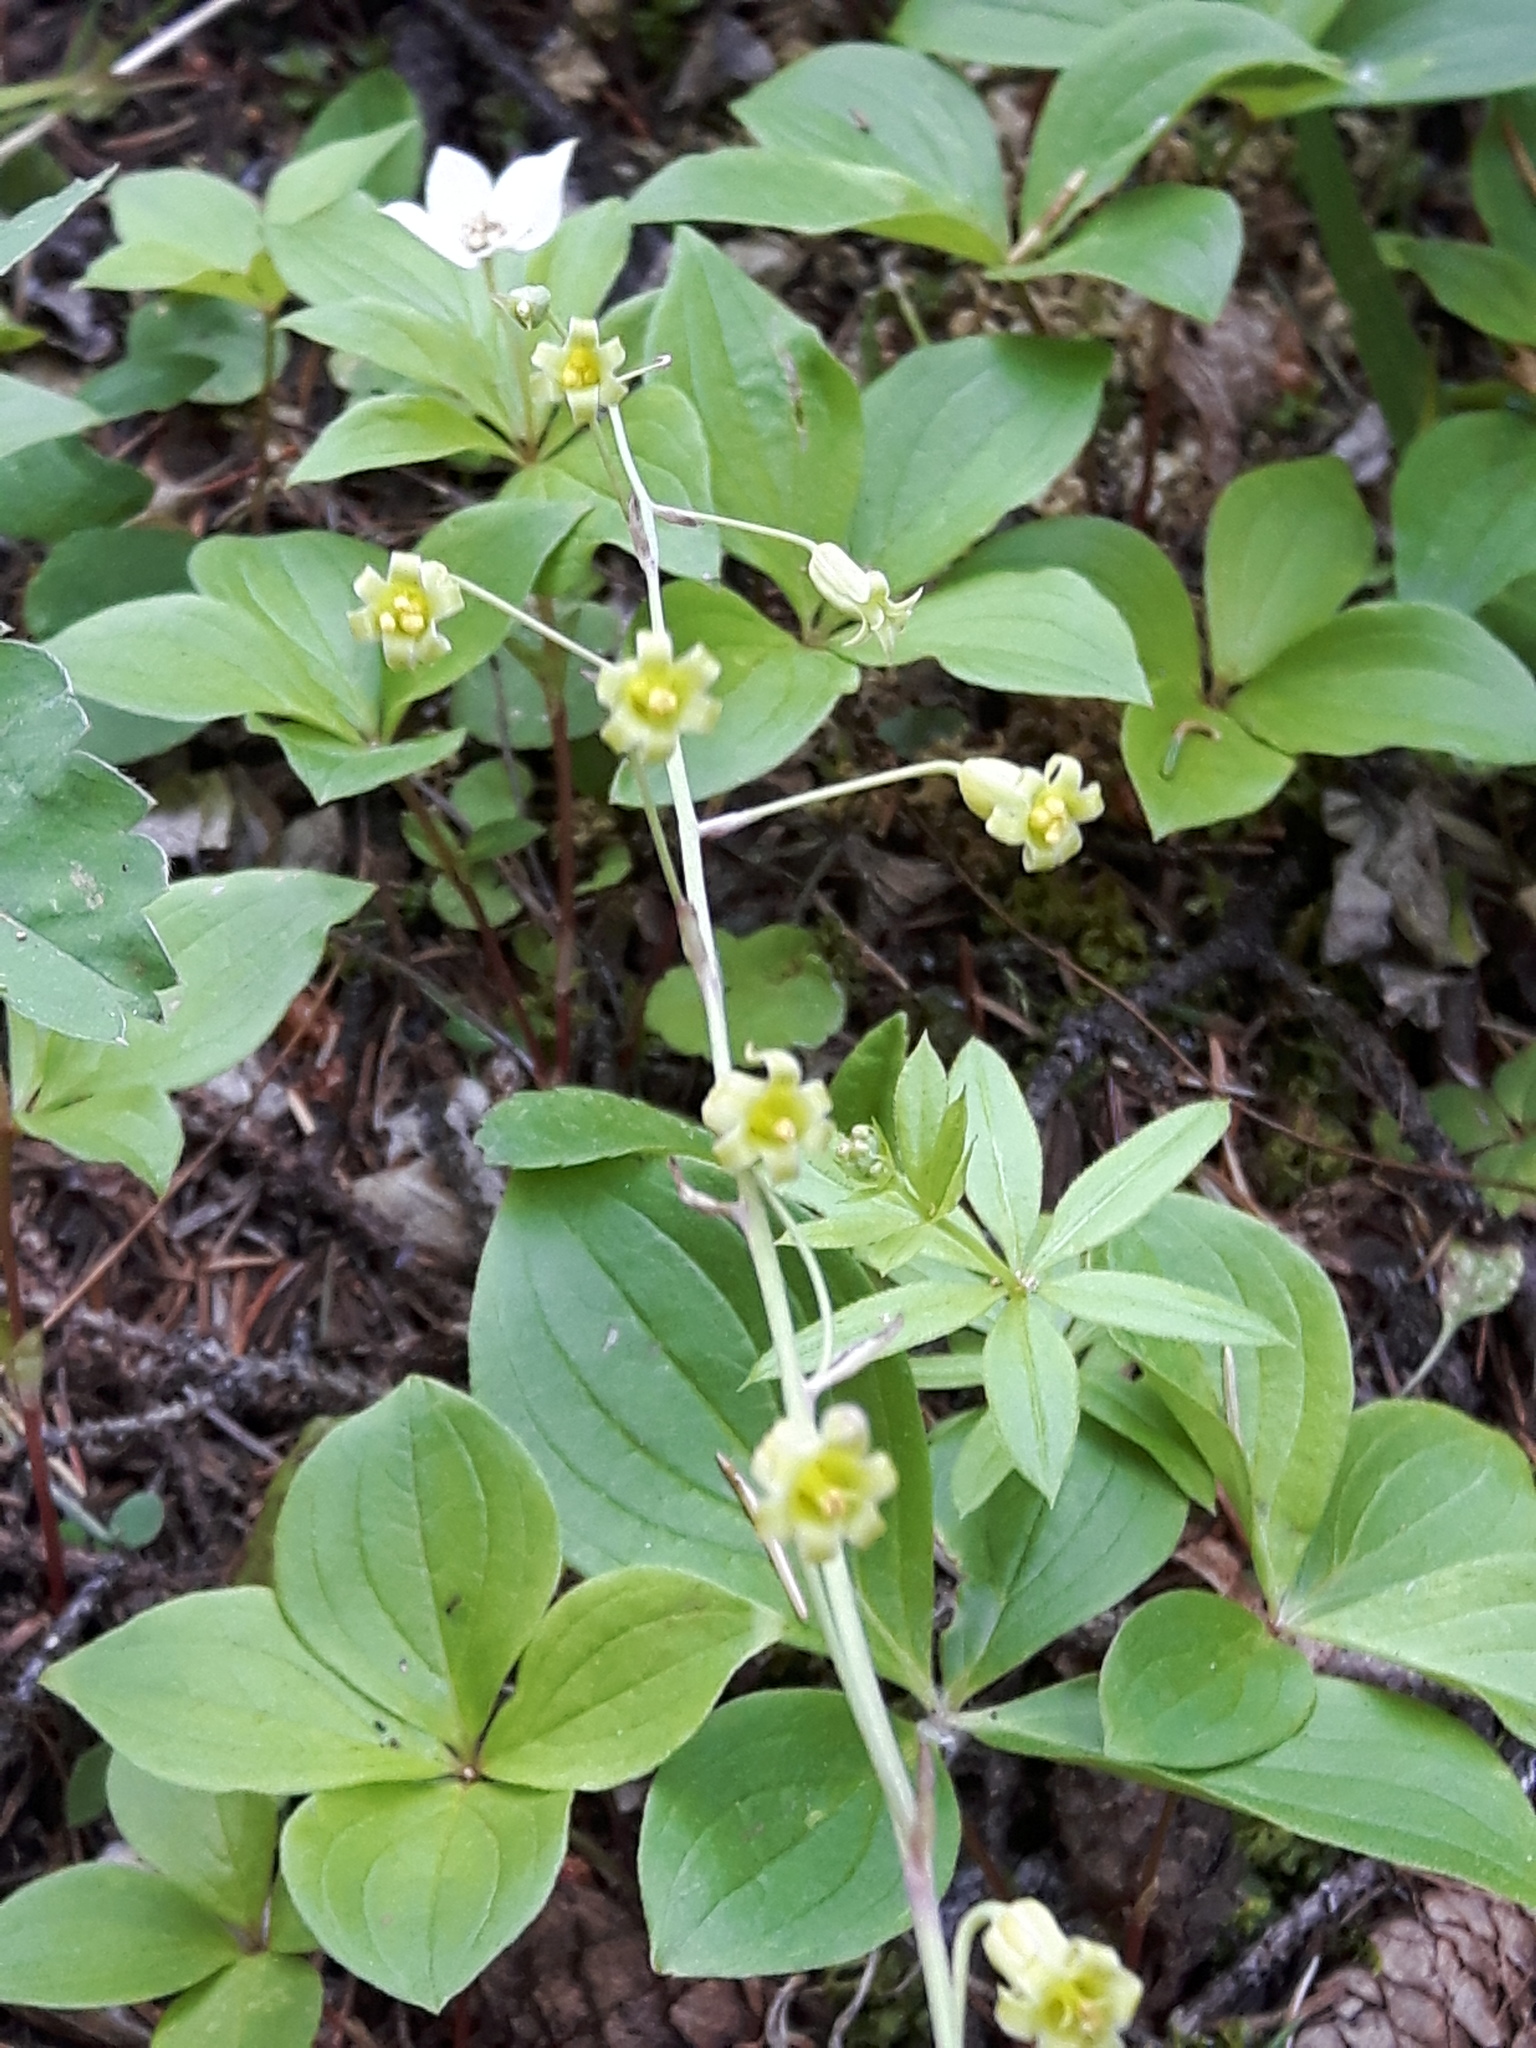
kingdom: Plantae
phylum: Tracheophyta
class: Liliopsida
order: Liliales
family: Melanthiaceae
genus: Anticlea
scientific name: Anticlea occidentalis
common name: Bronze-bells
